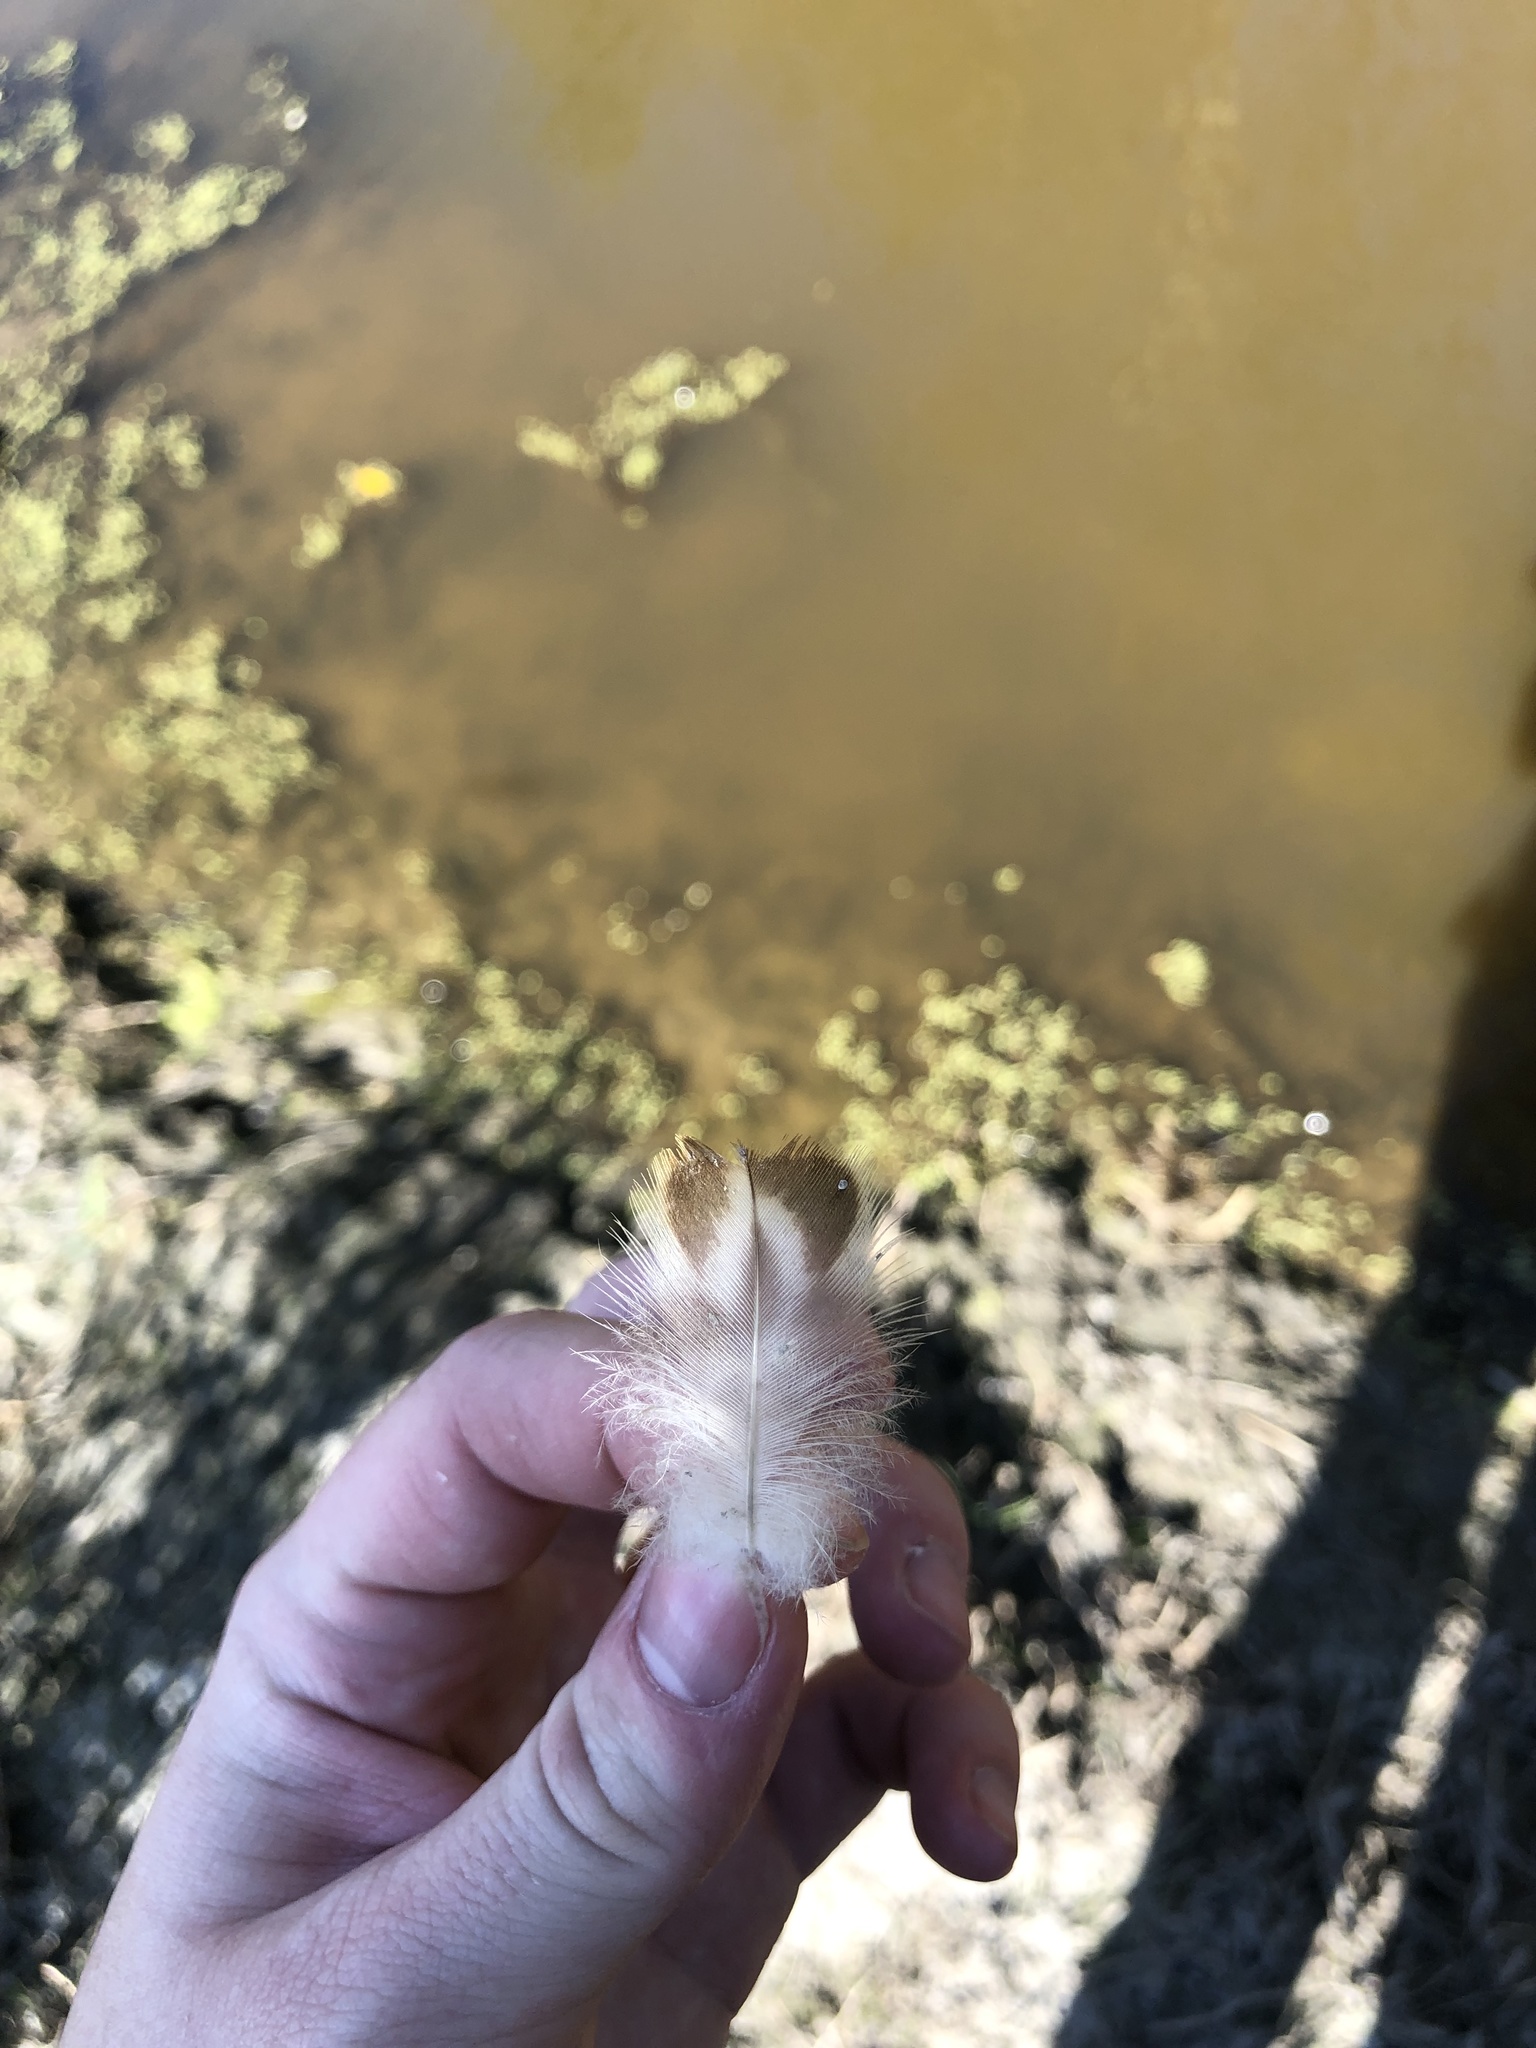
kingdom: Animalia
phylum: Chordata
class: Aves
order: Anseriformes
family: Anatidae
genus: Anas
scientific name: Anas platyrhynchos
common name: Mallard
